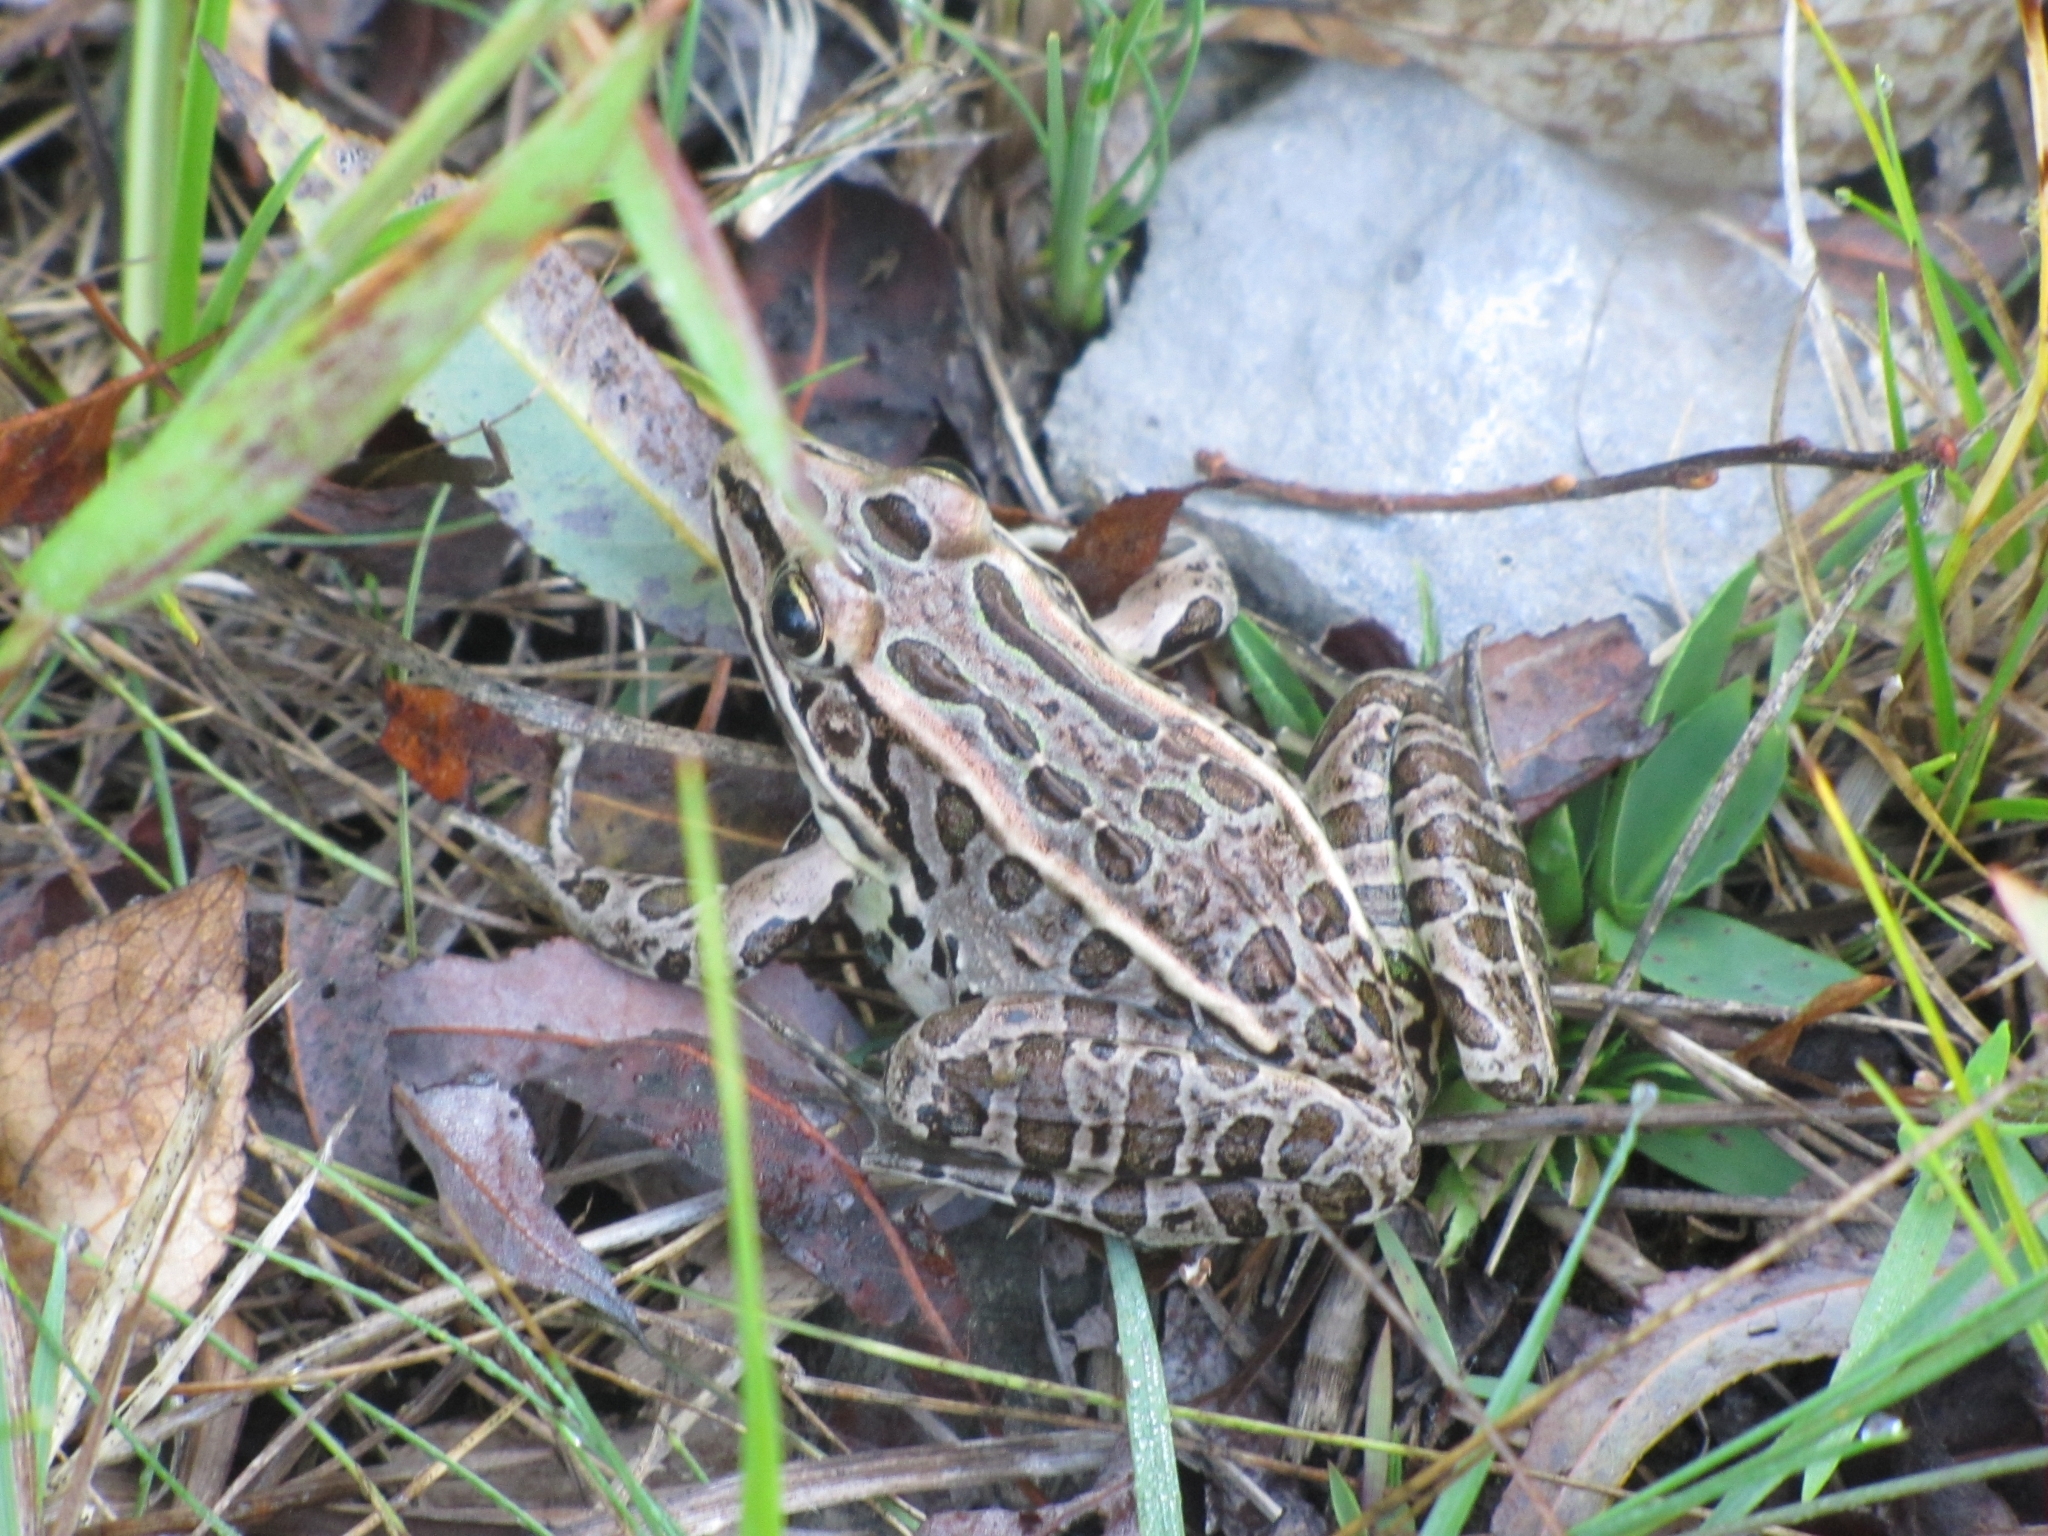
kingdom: Animalia
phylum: Chordata
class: Amphibia
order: Anura
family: Ranidae
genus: Lithobates
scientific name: Lithobates pipiens
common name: Northern leopard frog
